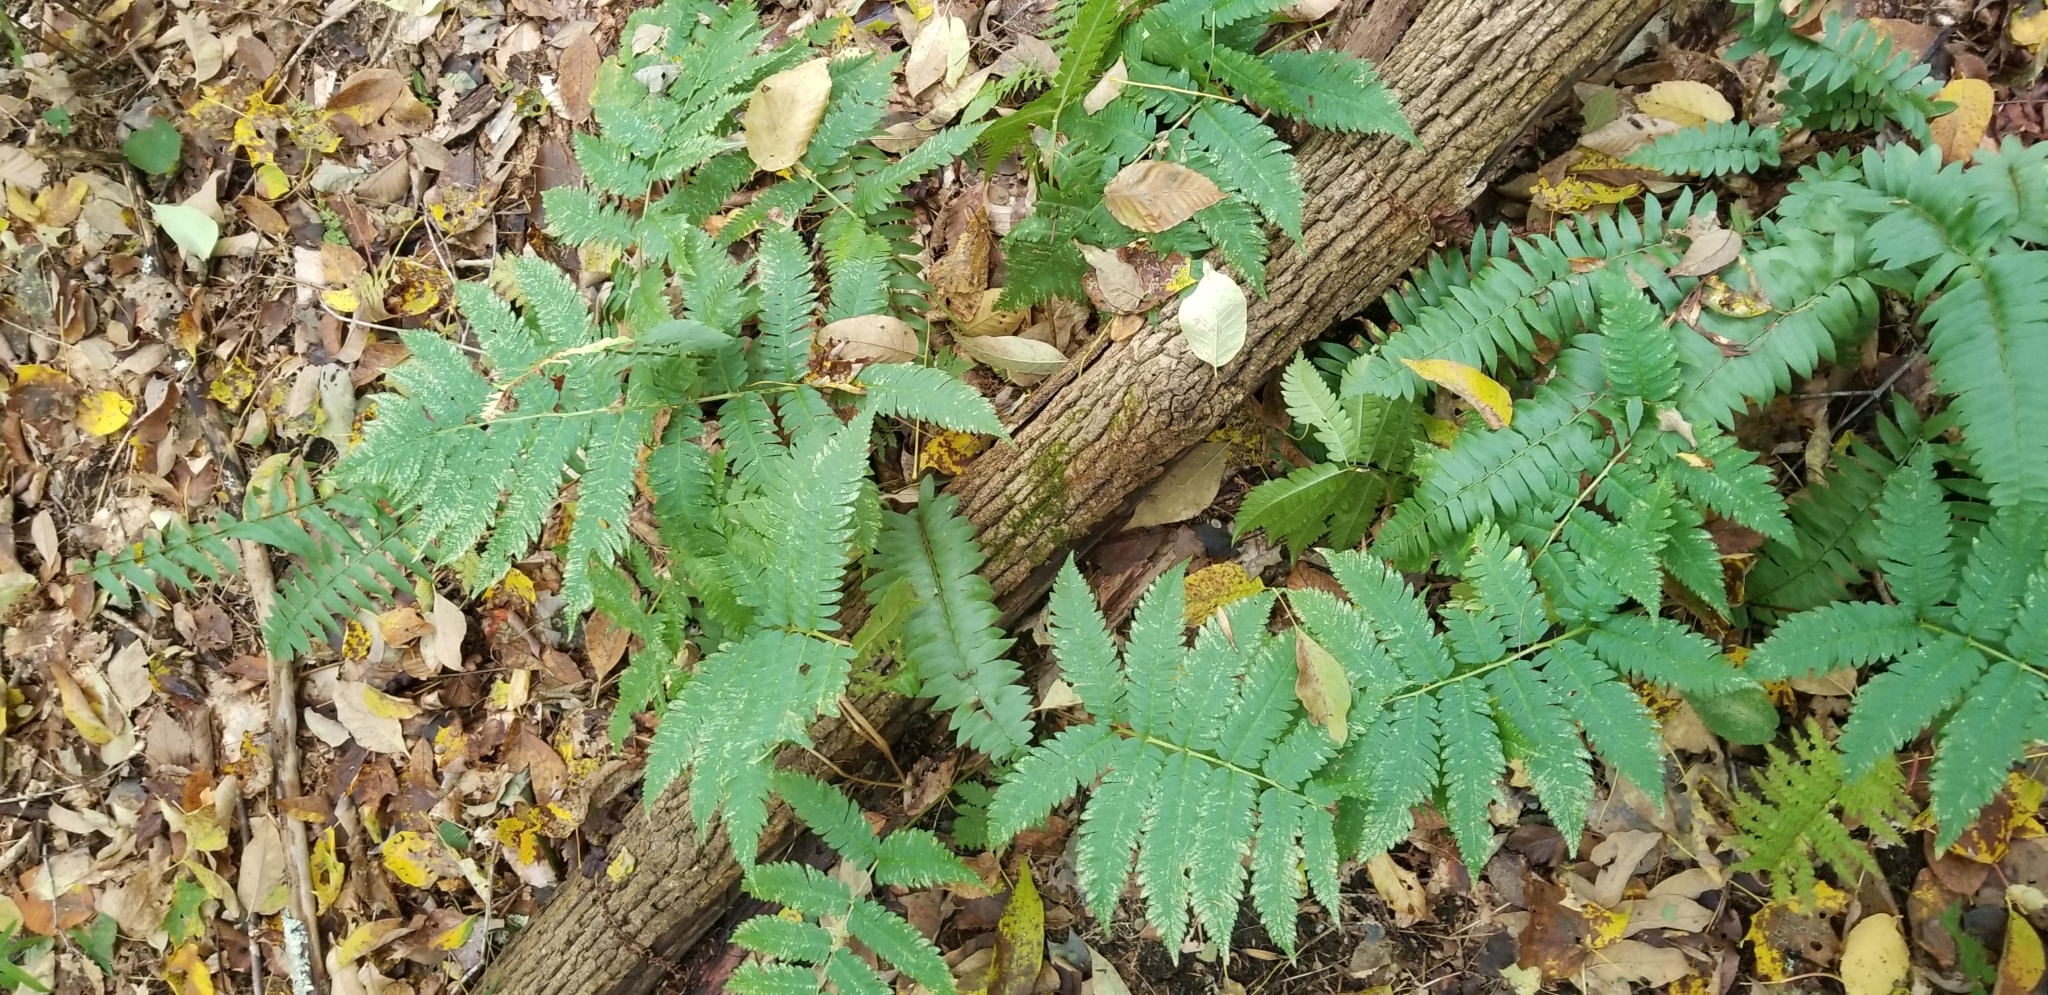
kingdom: Plantae
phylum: Tracheophyta
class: Polypodiopsida
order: Polypodiales
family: Dryopteridaceae
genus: Dryopteris
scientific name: Dryopteris goldieana
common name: Goldie's fern
